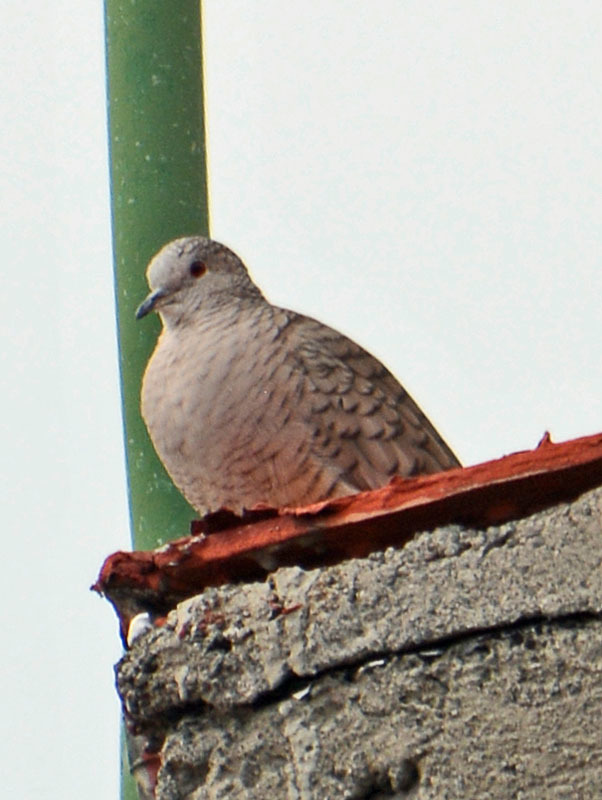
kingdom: Animalia
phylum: Chordata
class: Aves
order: Columbiformes
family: Columbidae
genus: Columbina
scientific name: Columbina inca
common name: Inca dove
